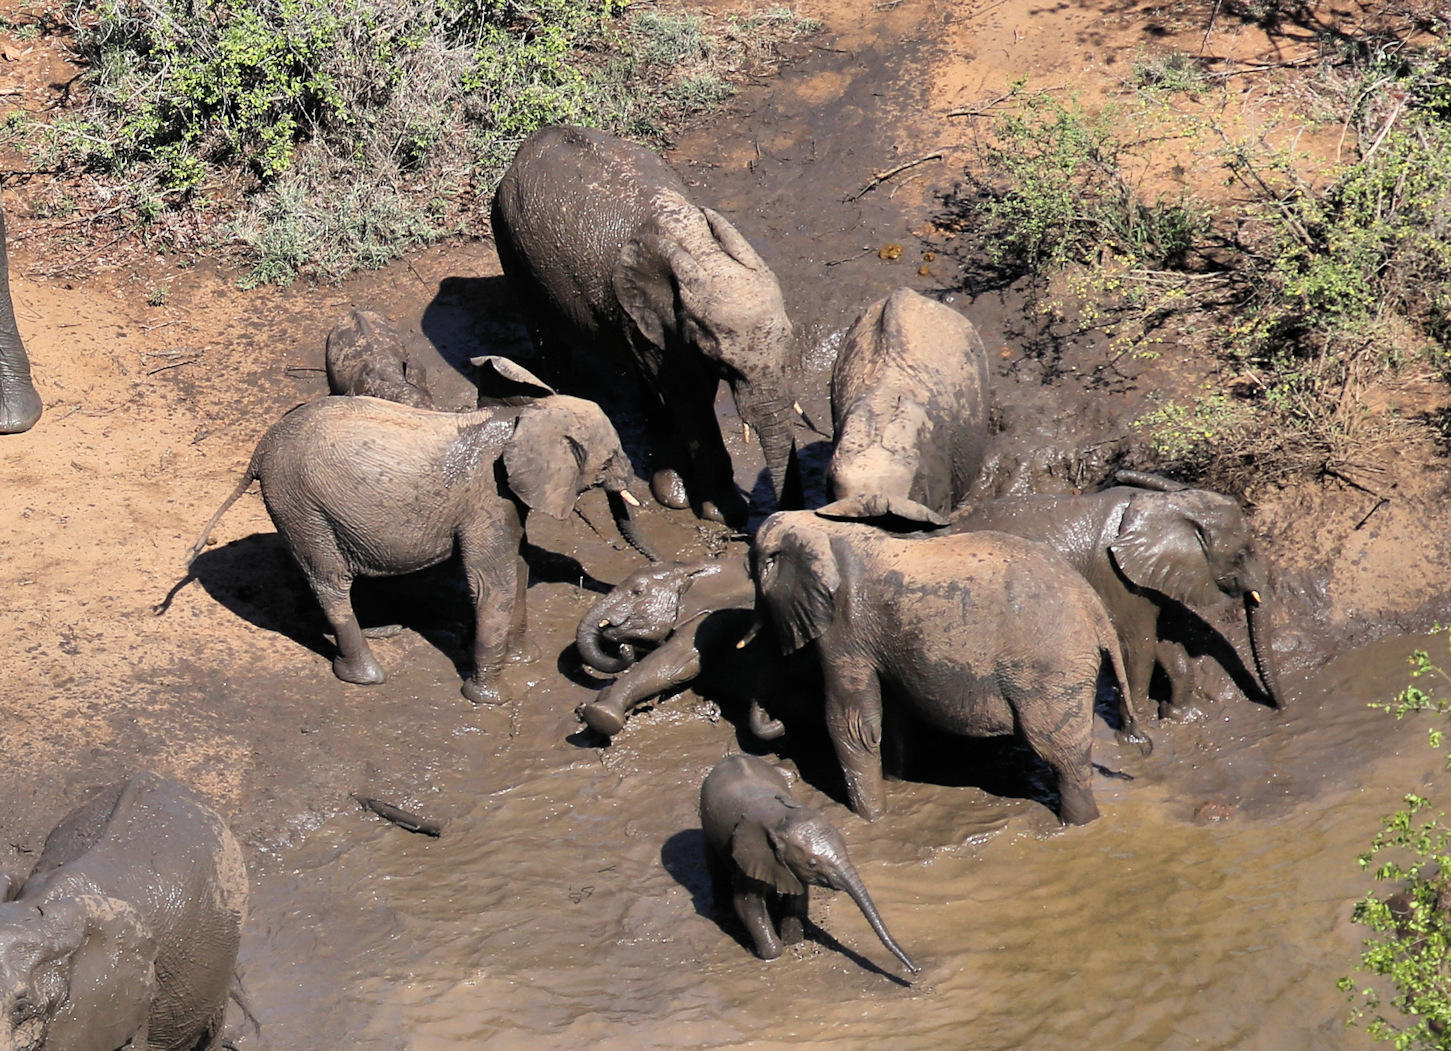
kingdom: Animalia
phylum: Chordata
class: Mammalia
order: Proboscidea
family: Elephantidae
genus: Loxodonta
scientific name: Loxodonta africana
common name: African elephant
